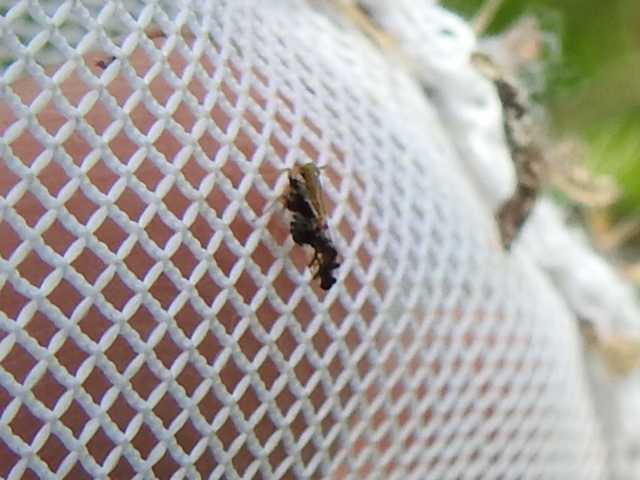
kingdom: Animalia
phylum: Arthropoda
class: Insecta
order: Hemiptera
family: Delphacidae
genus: Liburniella
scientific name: Liburniella ornata
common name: Ornate planthopper
